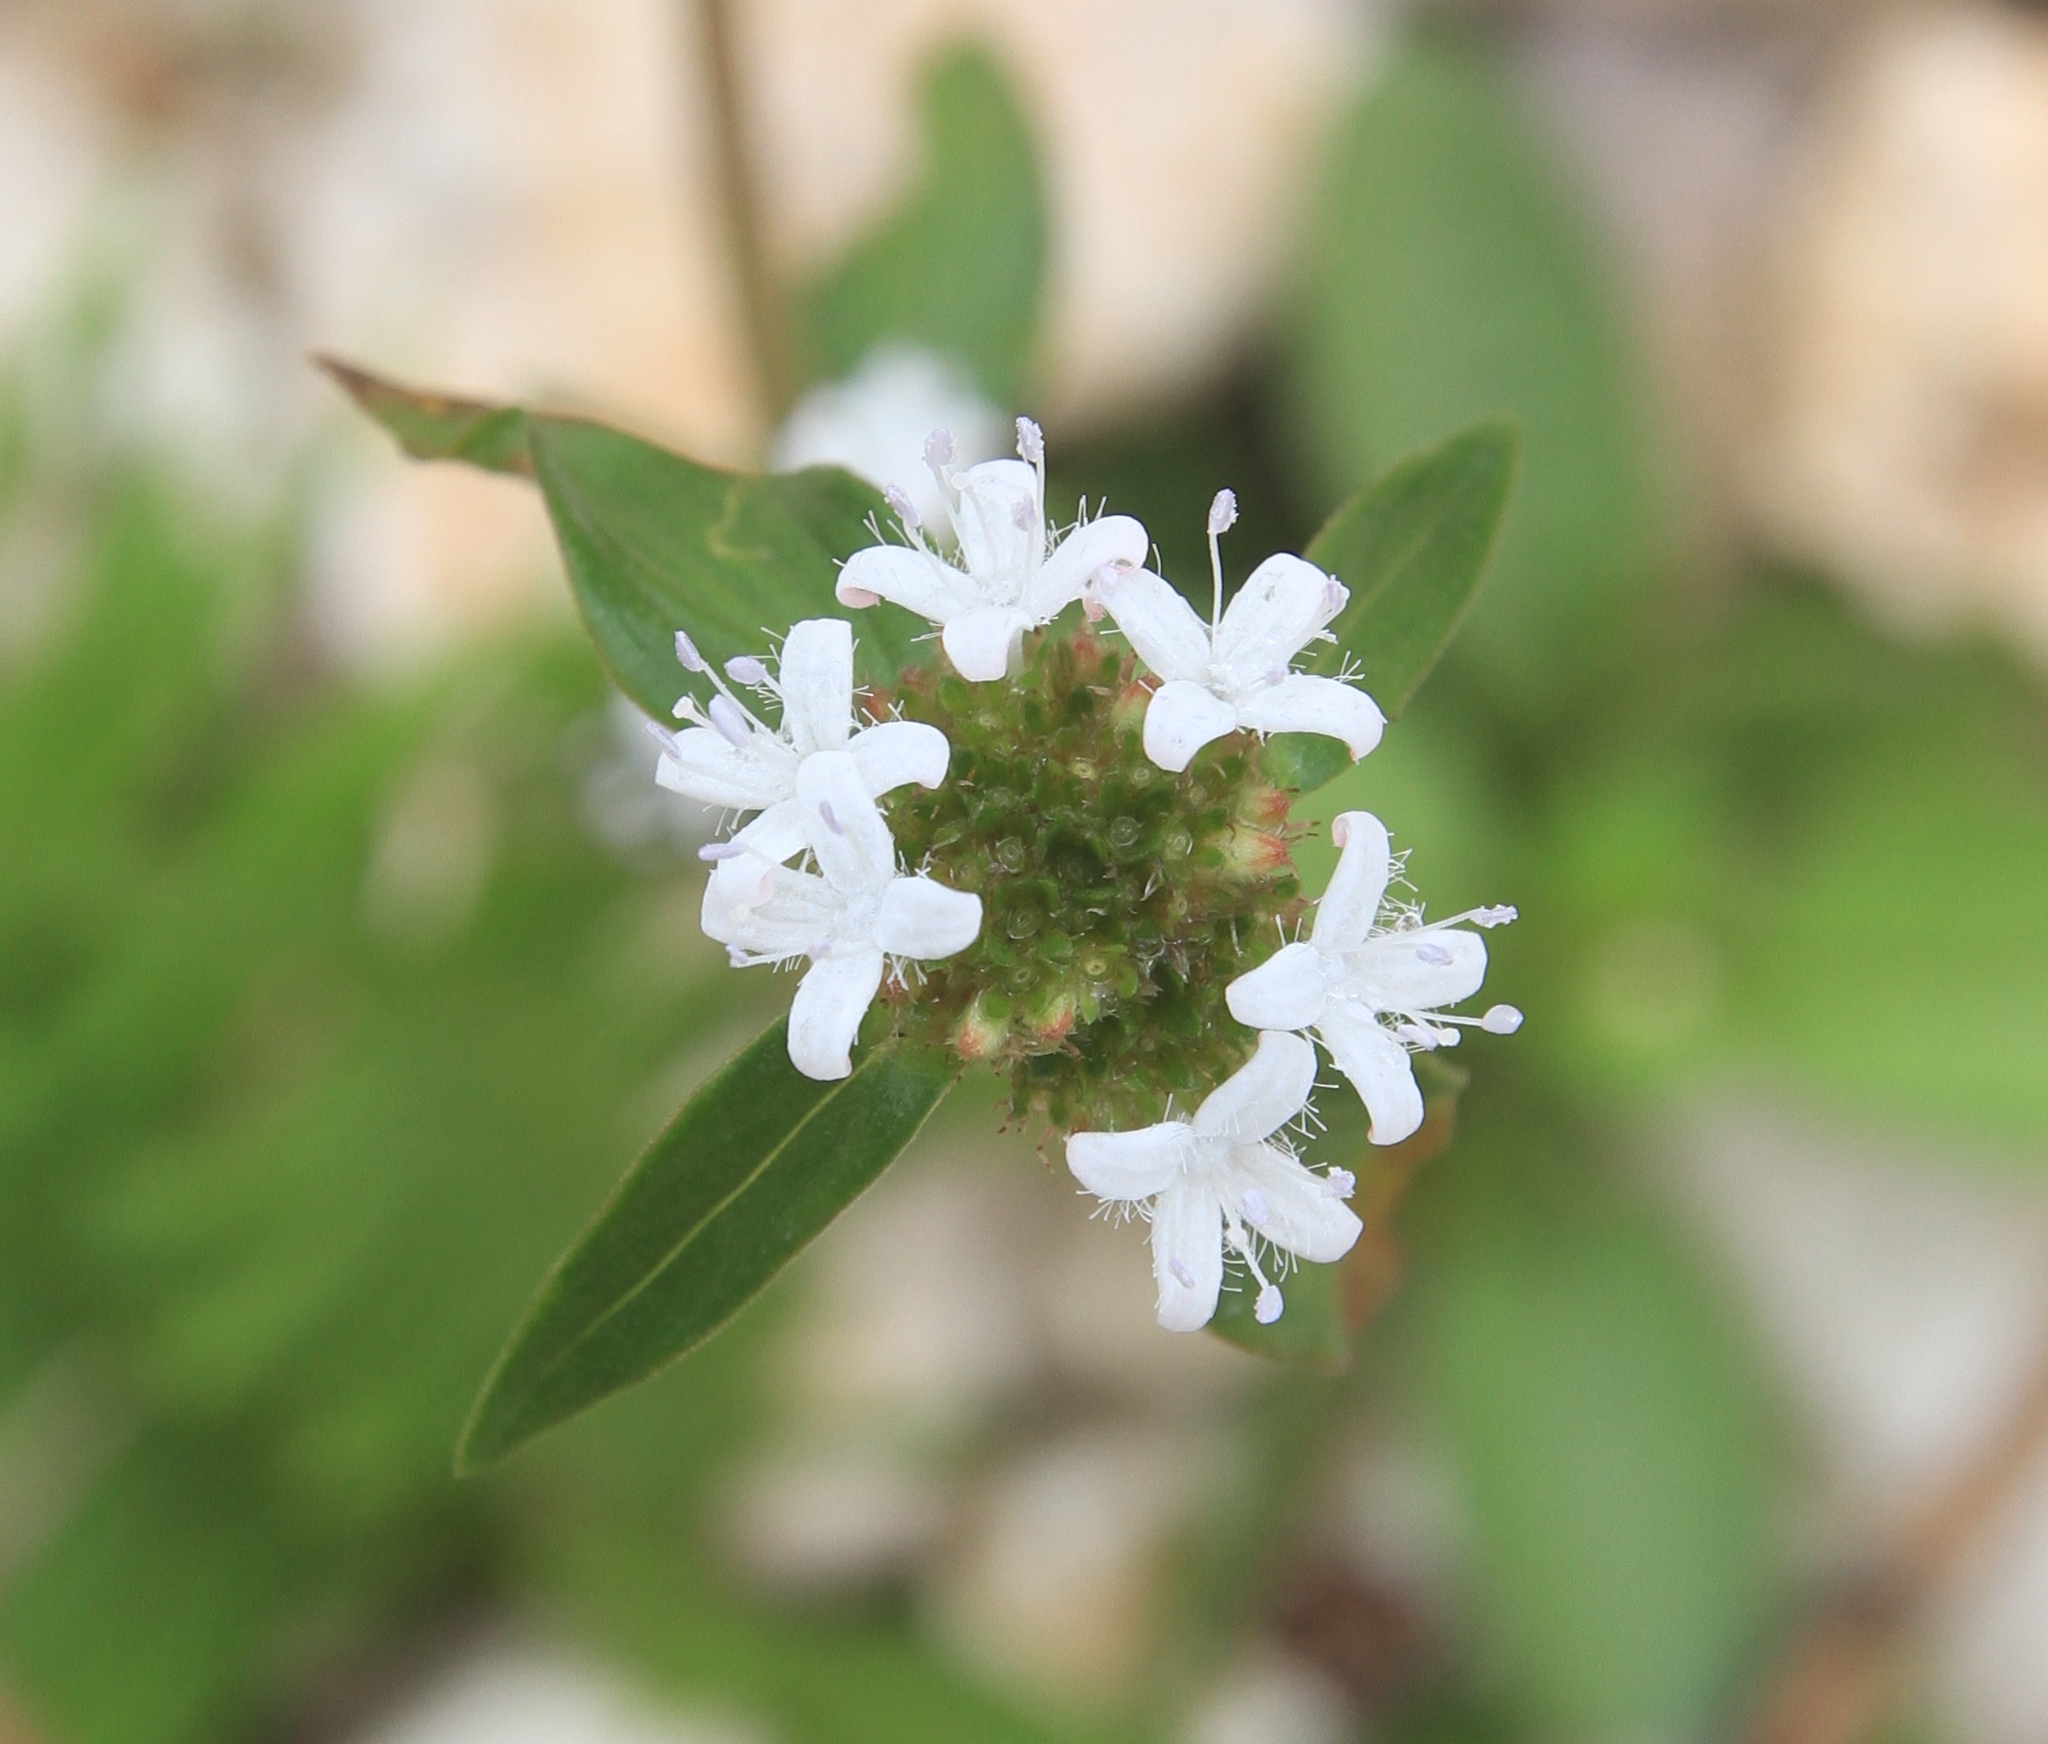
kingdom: Plantae
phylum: Tracheophyta
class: Magnoliopsida
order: Gentianales
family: Rubiaceae
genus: Spermacoce
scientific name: Spermacoce remota
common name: Woodland false buttonweed
